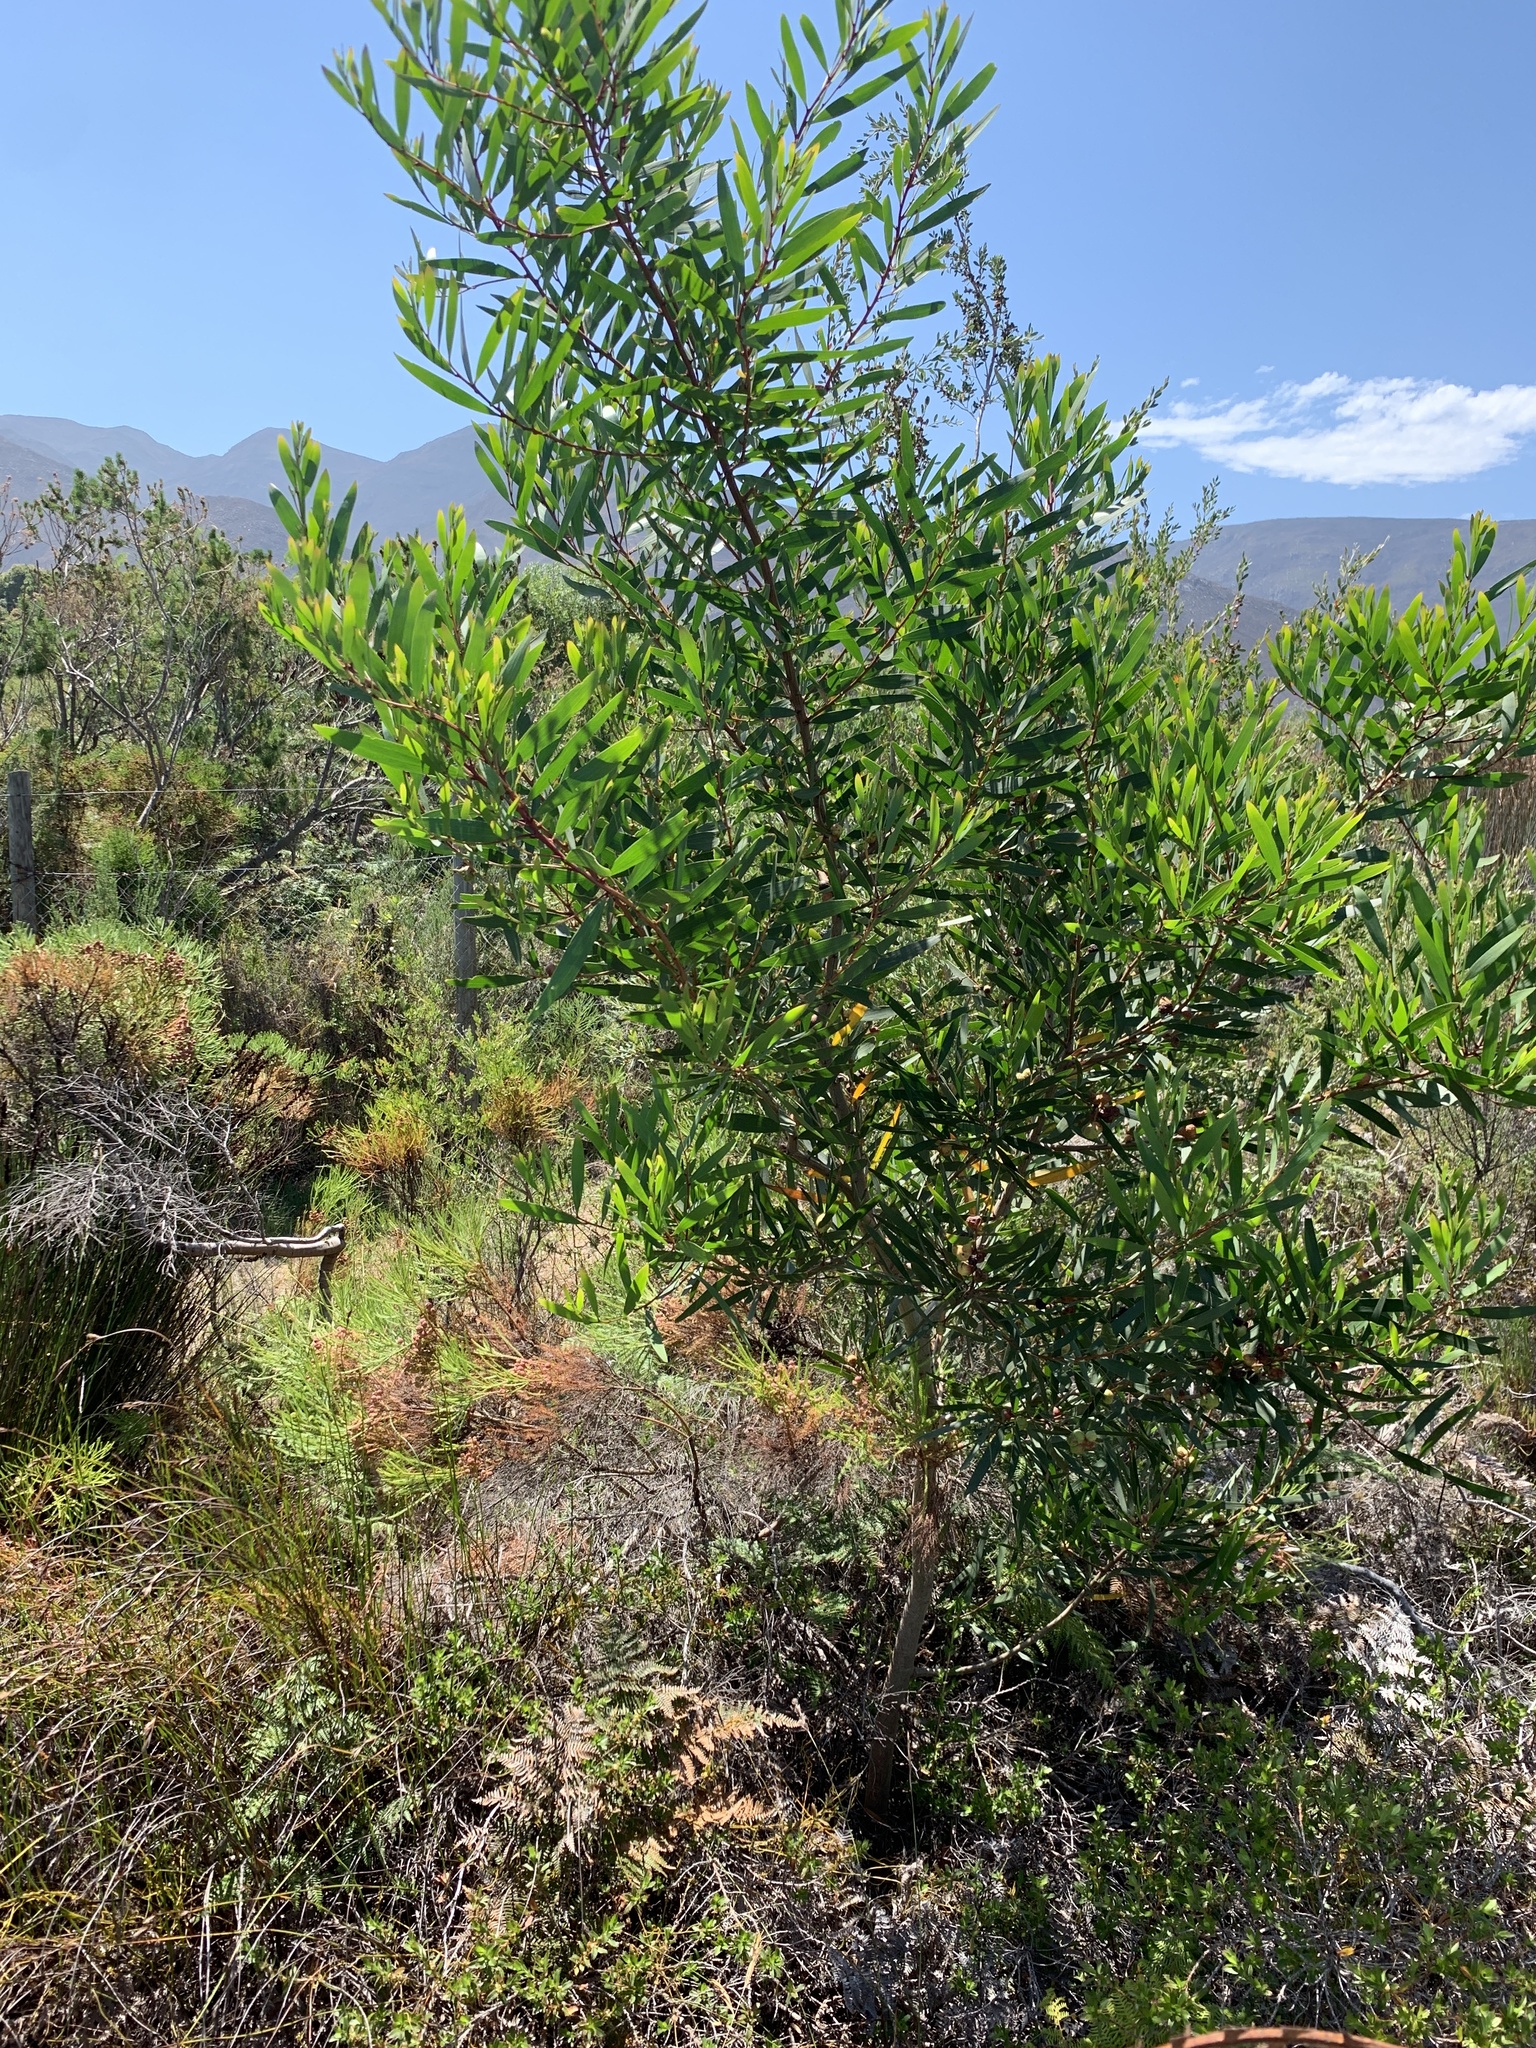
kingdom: Plantae
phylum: Tracheophyta
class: Magnoliopsida
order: Fabales
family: Fabaceae
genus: Acacia
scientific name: Acacia longifolia
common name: Sydney golden wattle
